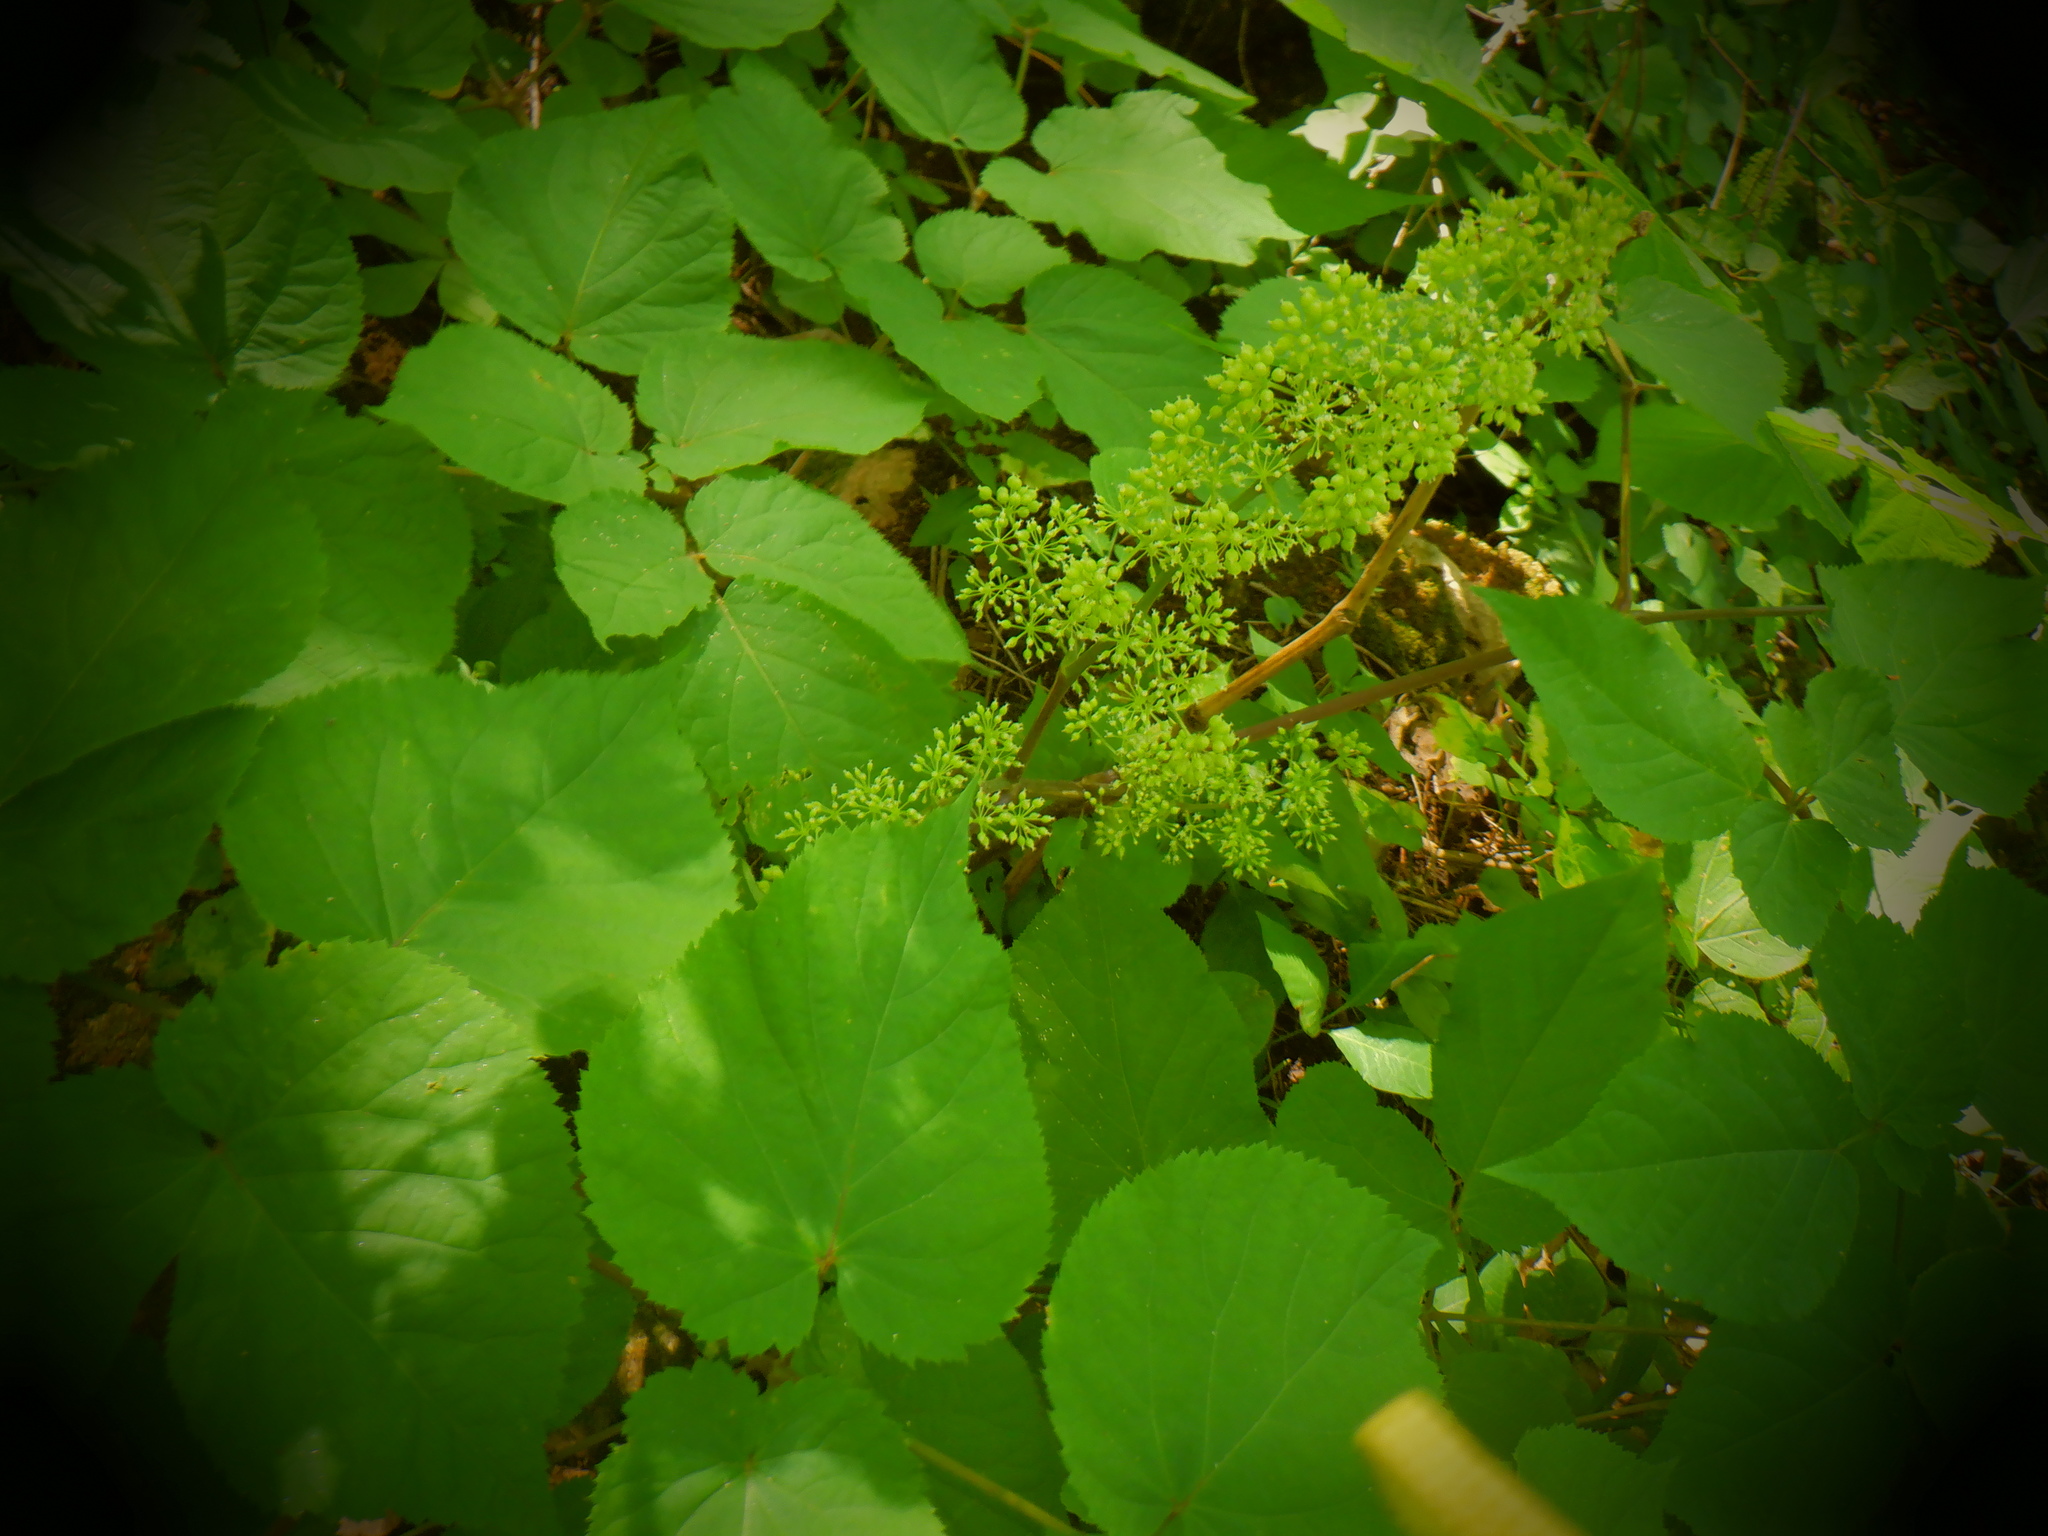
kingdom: Plantae
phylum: Tracheophyta
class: Magnoliopsida
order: Apiales
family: Araliaceae
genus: Aralia
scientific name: Aralia racemosa
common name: American-spikenard
